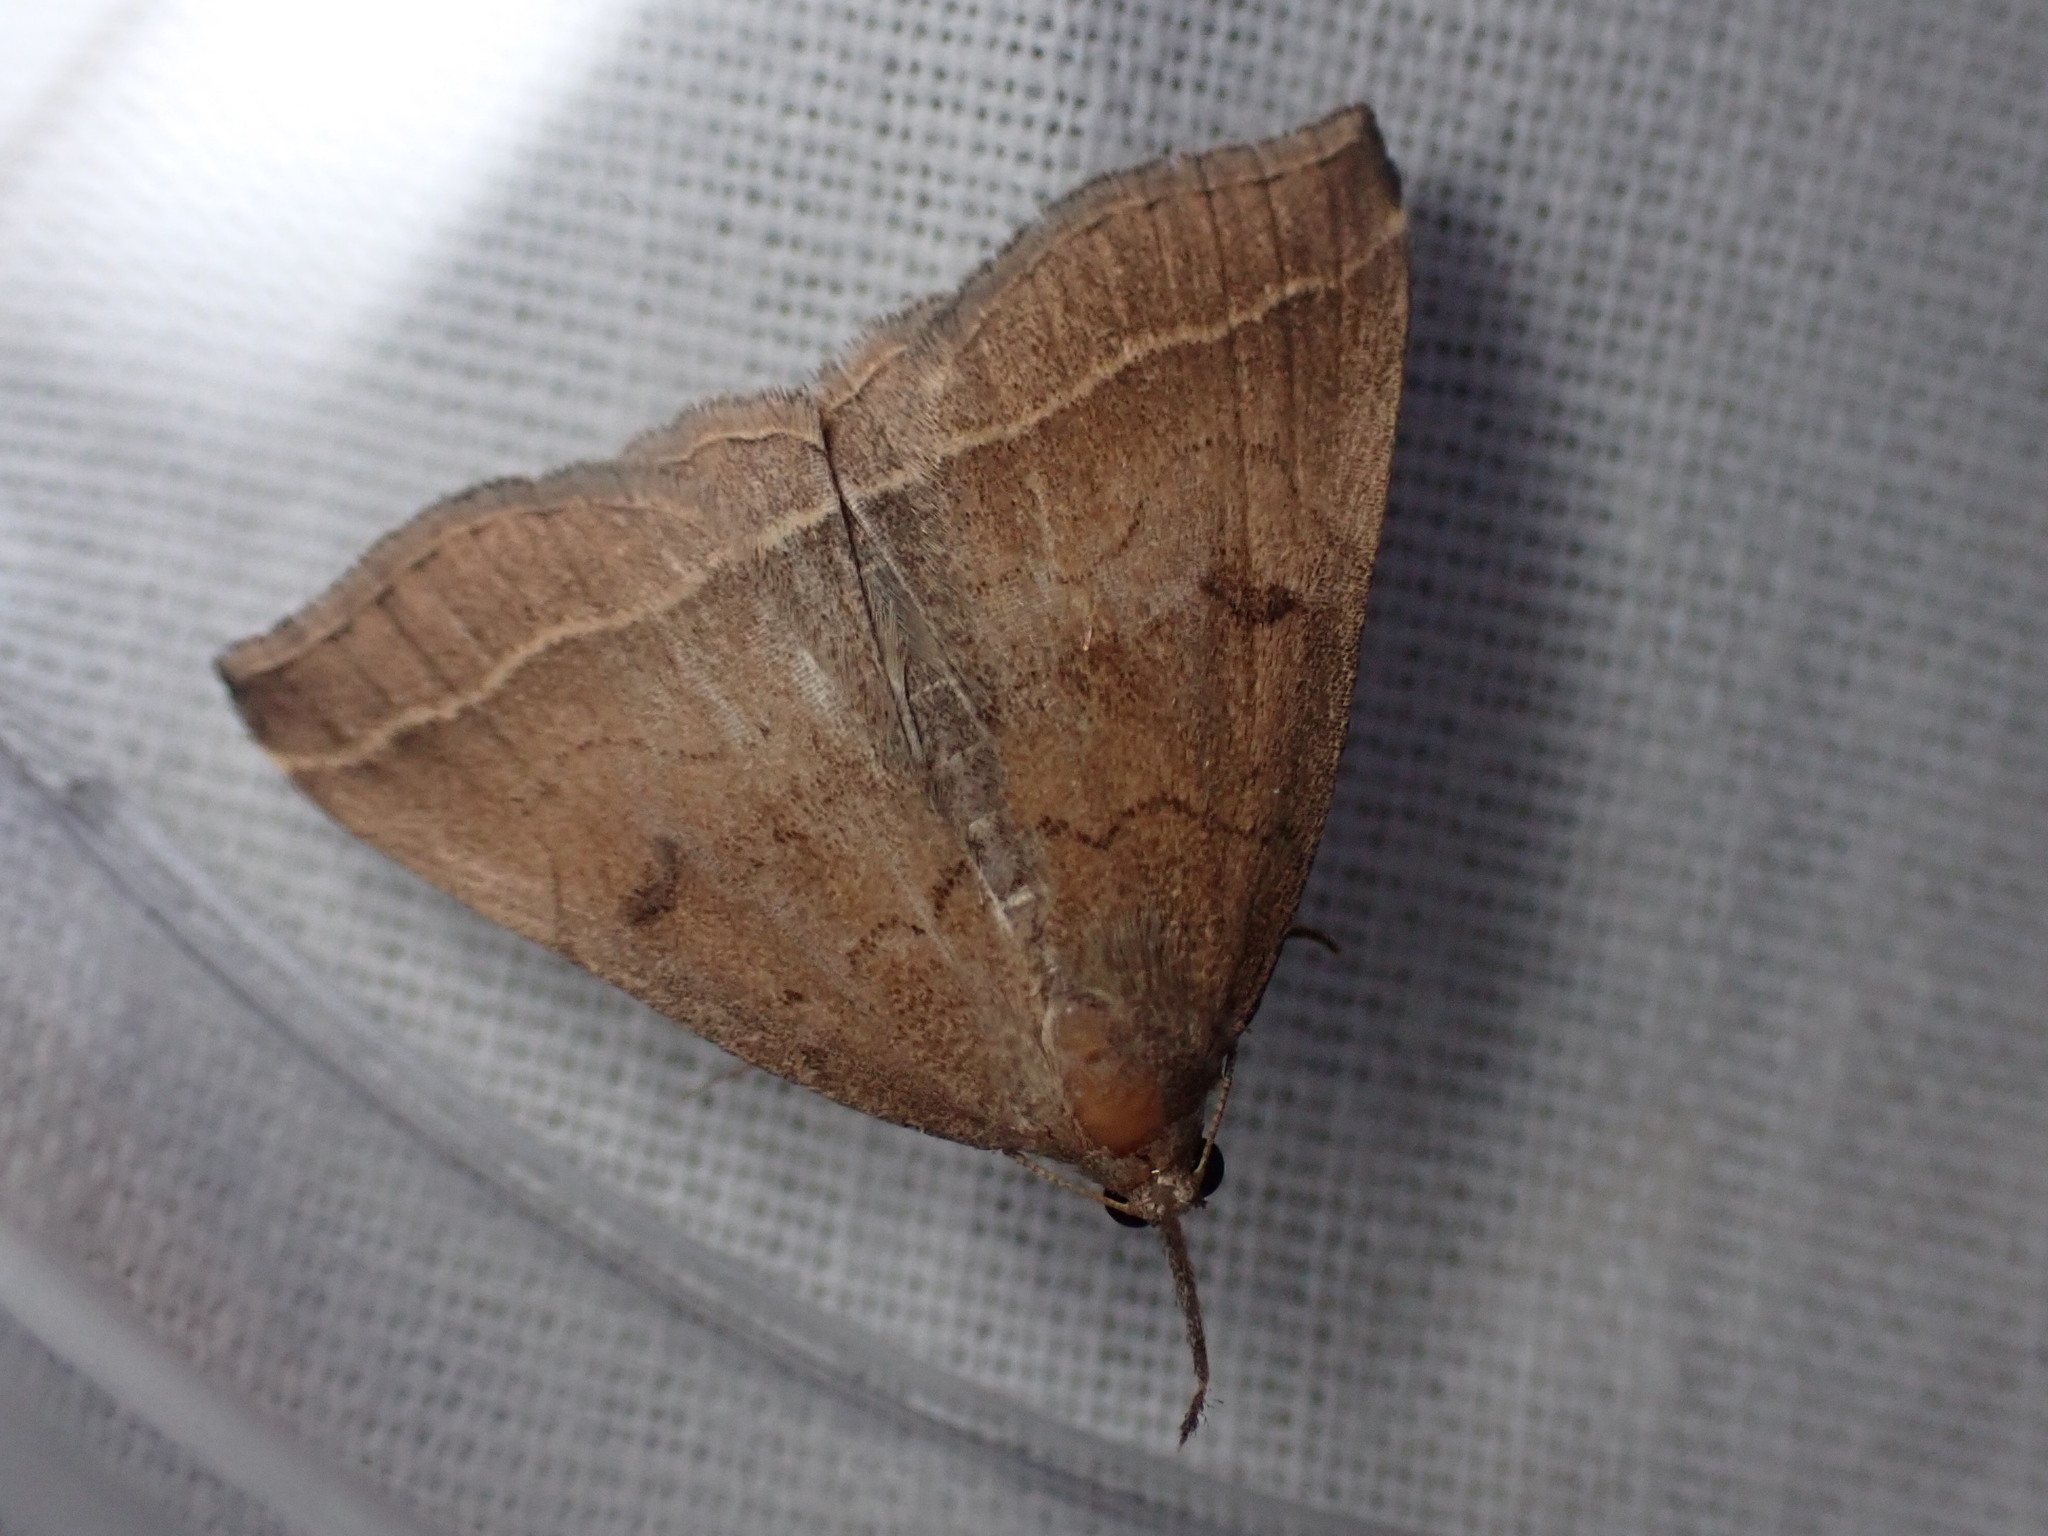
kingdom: Animalia
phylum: Arthropoda
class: Insecta
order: Lepidoptera
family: Erebidae
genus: Pechipogo
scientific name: Pechipogo plumigeralis
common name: Plumed fan-foot
